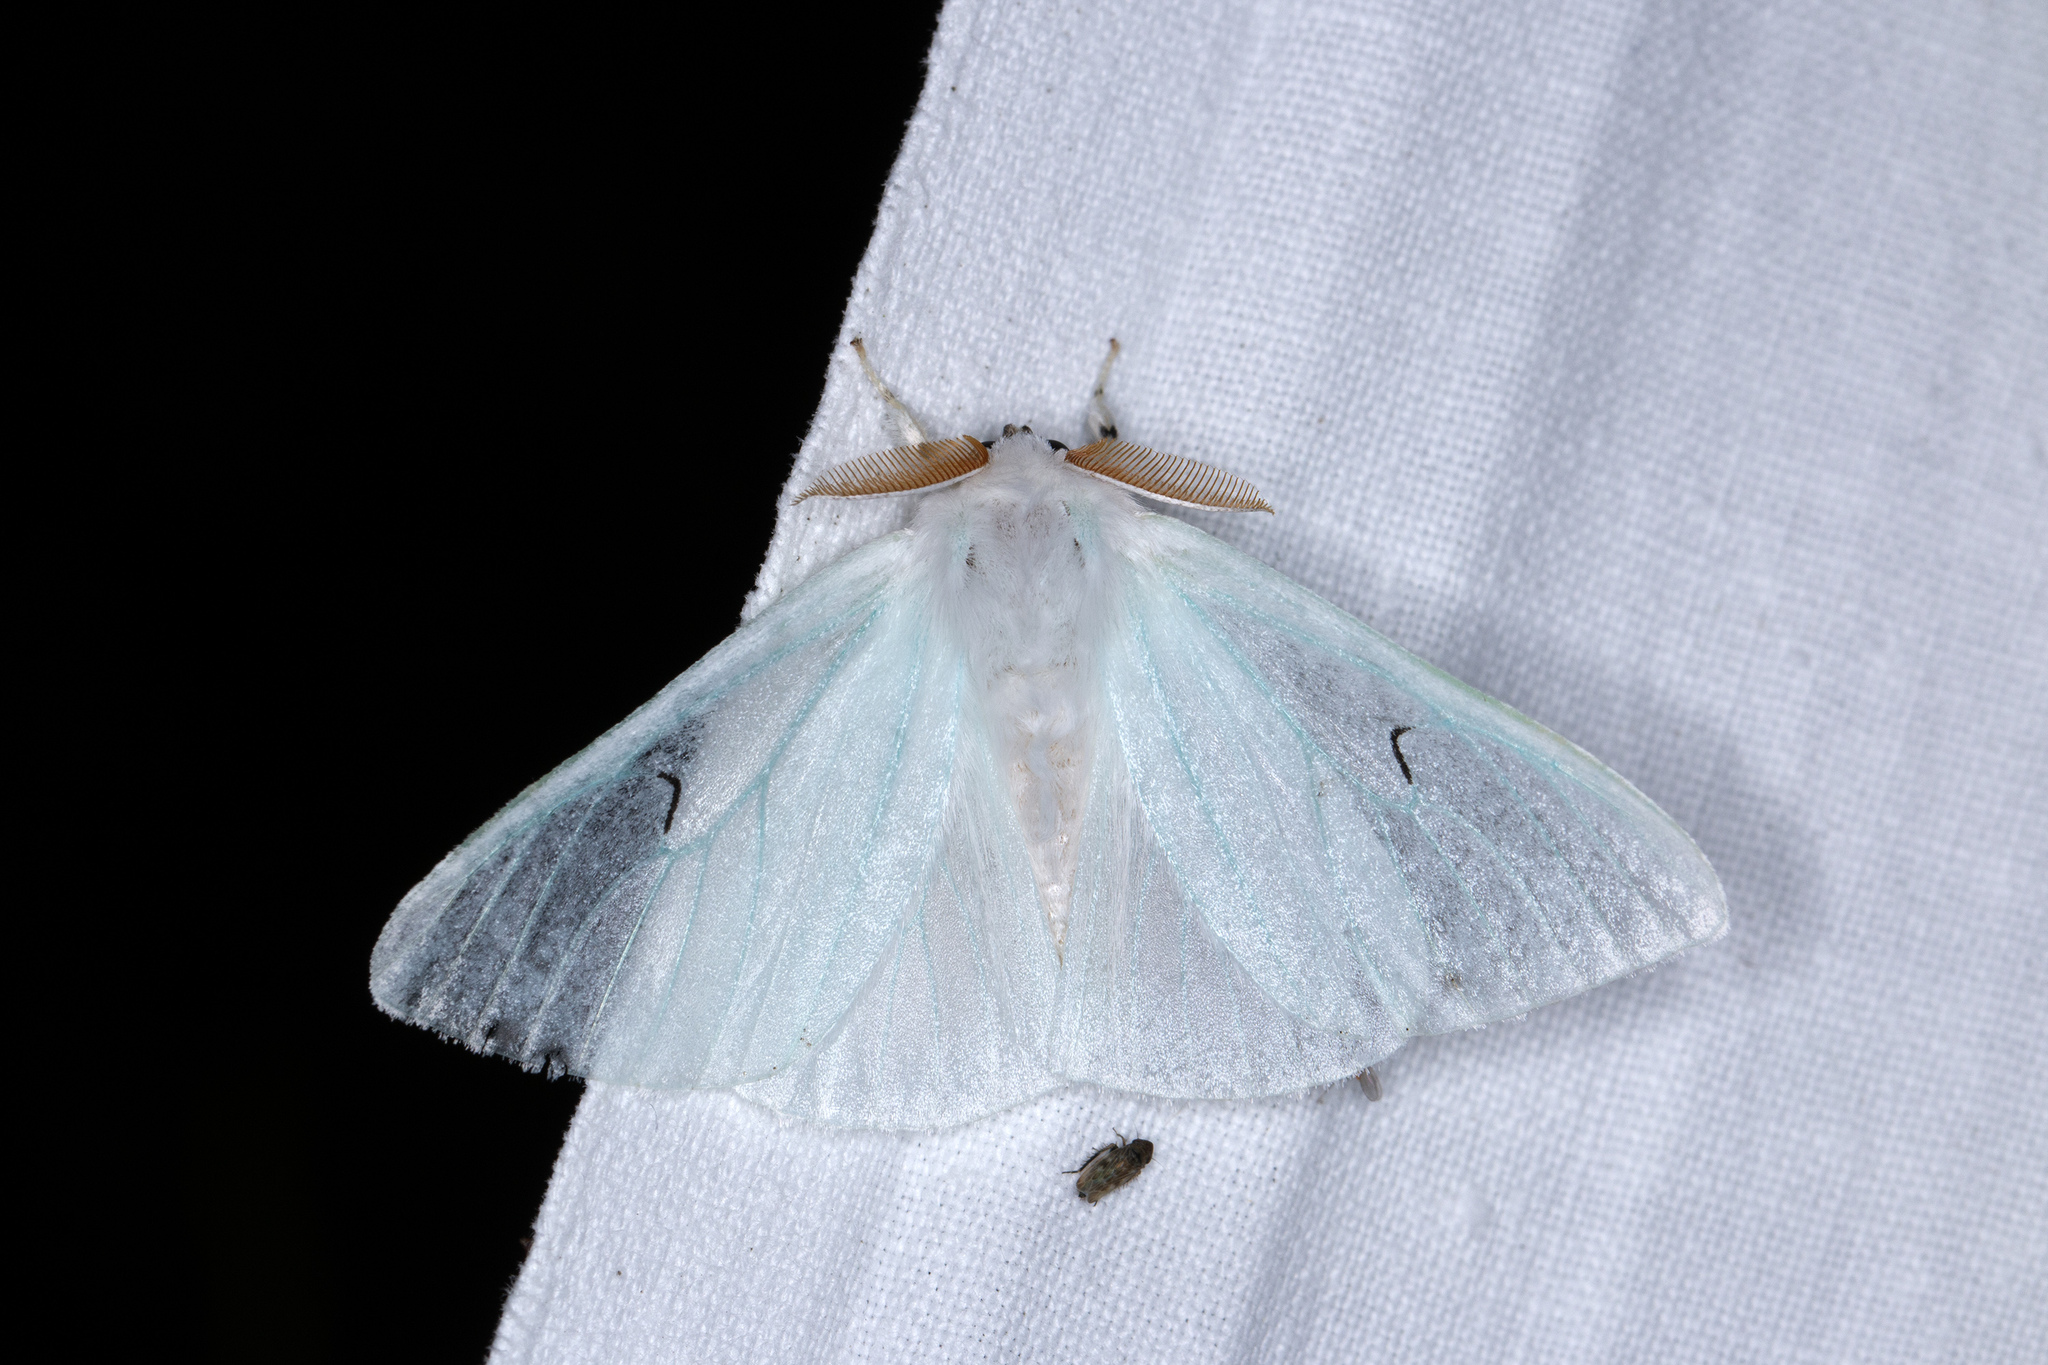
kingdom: Animalia
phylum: Arthropoda
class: Insecta
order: Lepidoptera
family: Erebidae
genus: Arctornis
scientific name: Arctornis l-nigrum
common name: Black v moth
